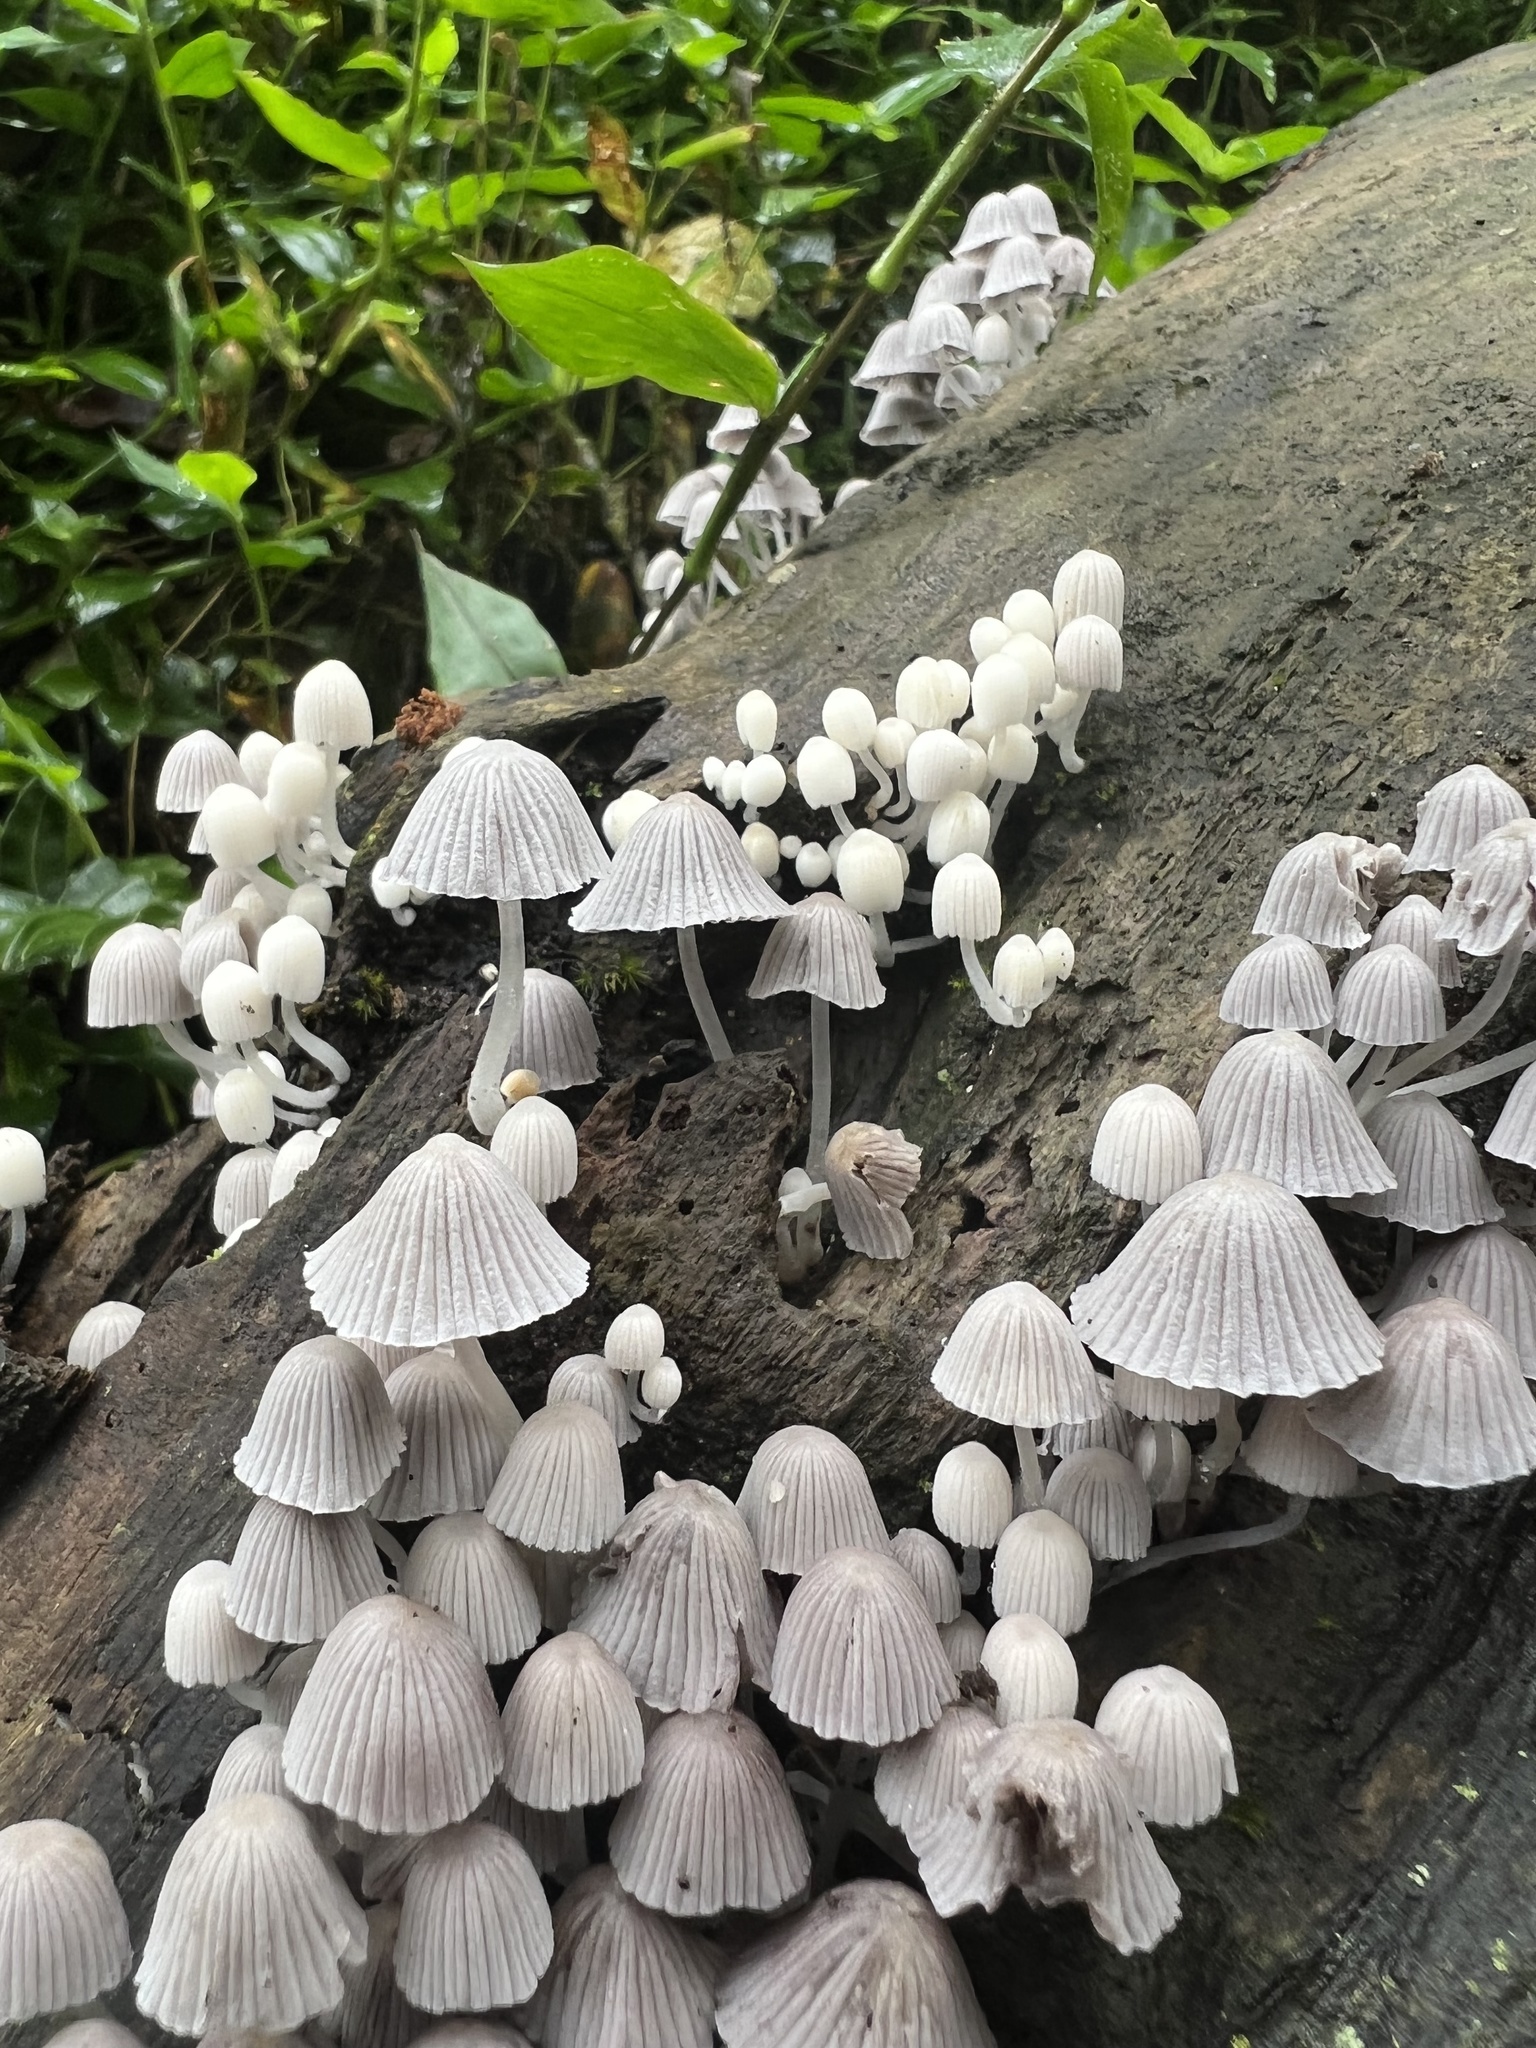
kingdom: Fungi
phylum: Basidiomycota
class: Agaricomycetes
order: Agaricales
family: Psathyrellaceae
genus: Coprinellus
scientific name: Coprinellus disseminatus
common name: Fairies' bonnets
